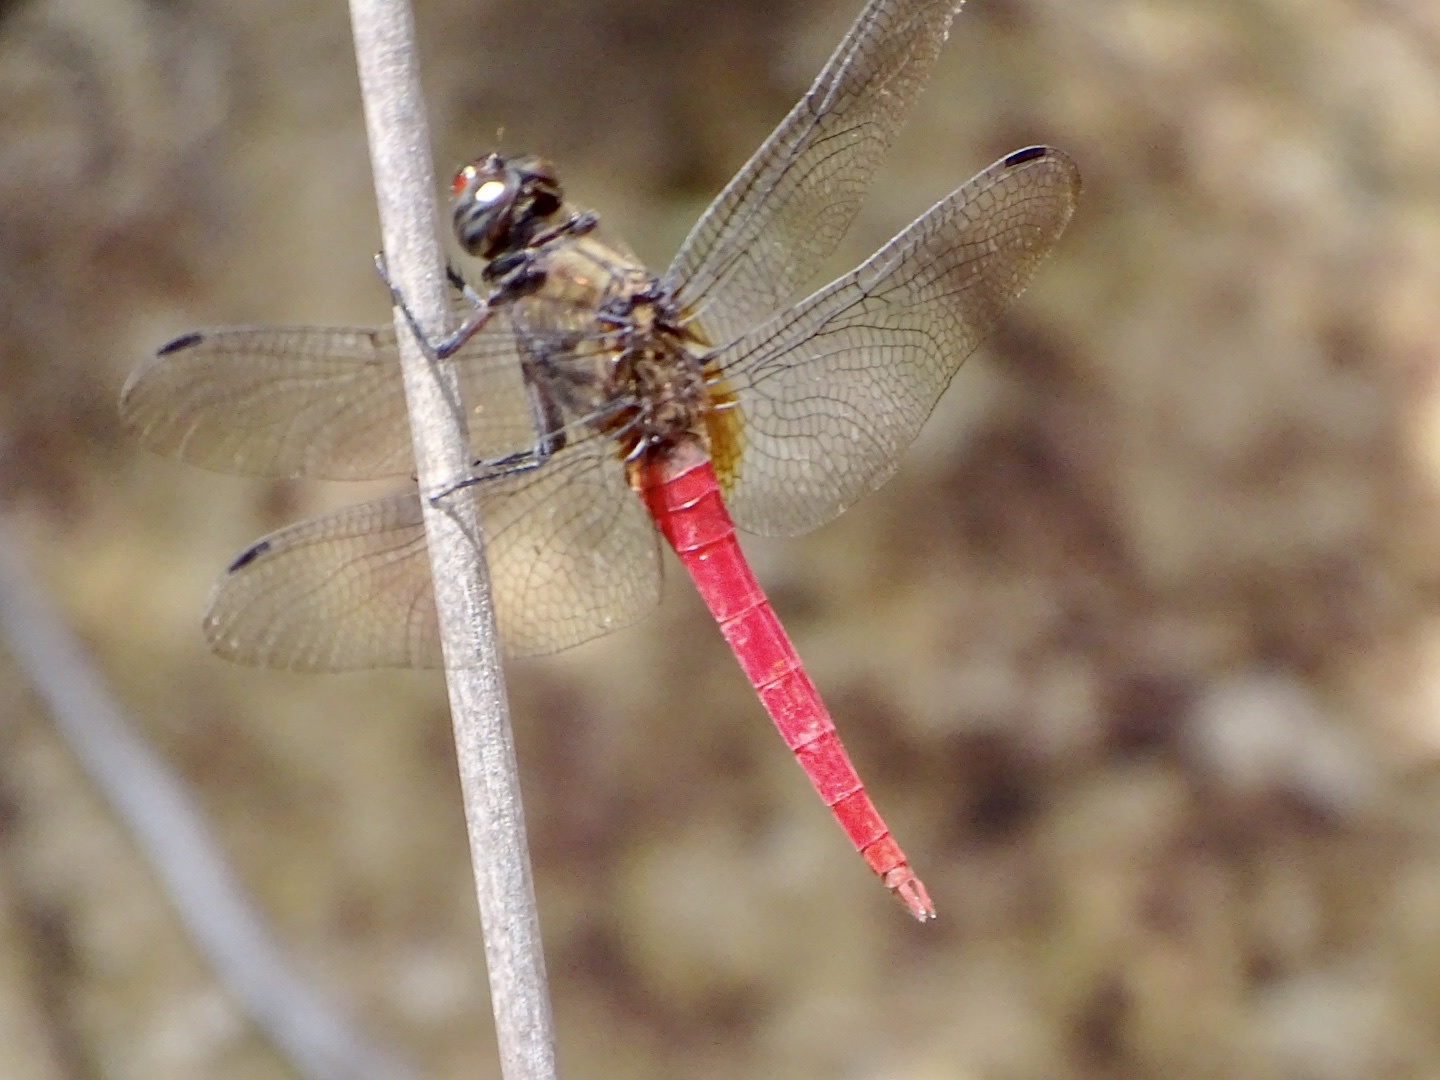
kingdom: Animalia
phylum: Arthropoda
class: Insecta
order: Odonata
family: Libellulidae
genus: Orthetrum
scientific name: Orthetrum chrysis
